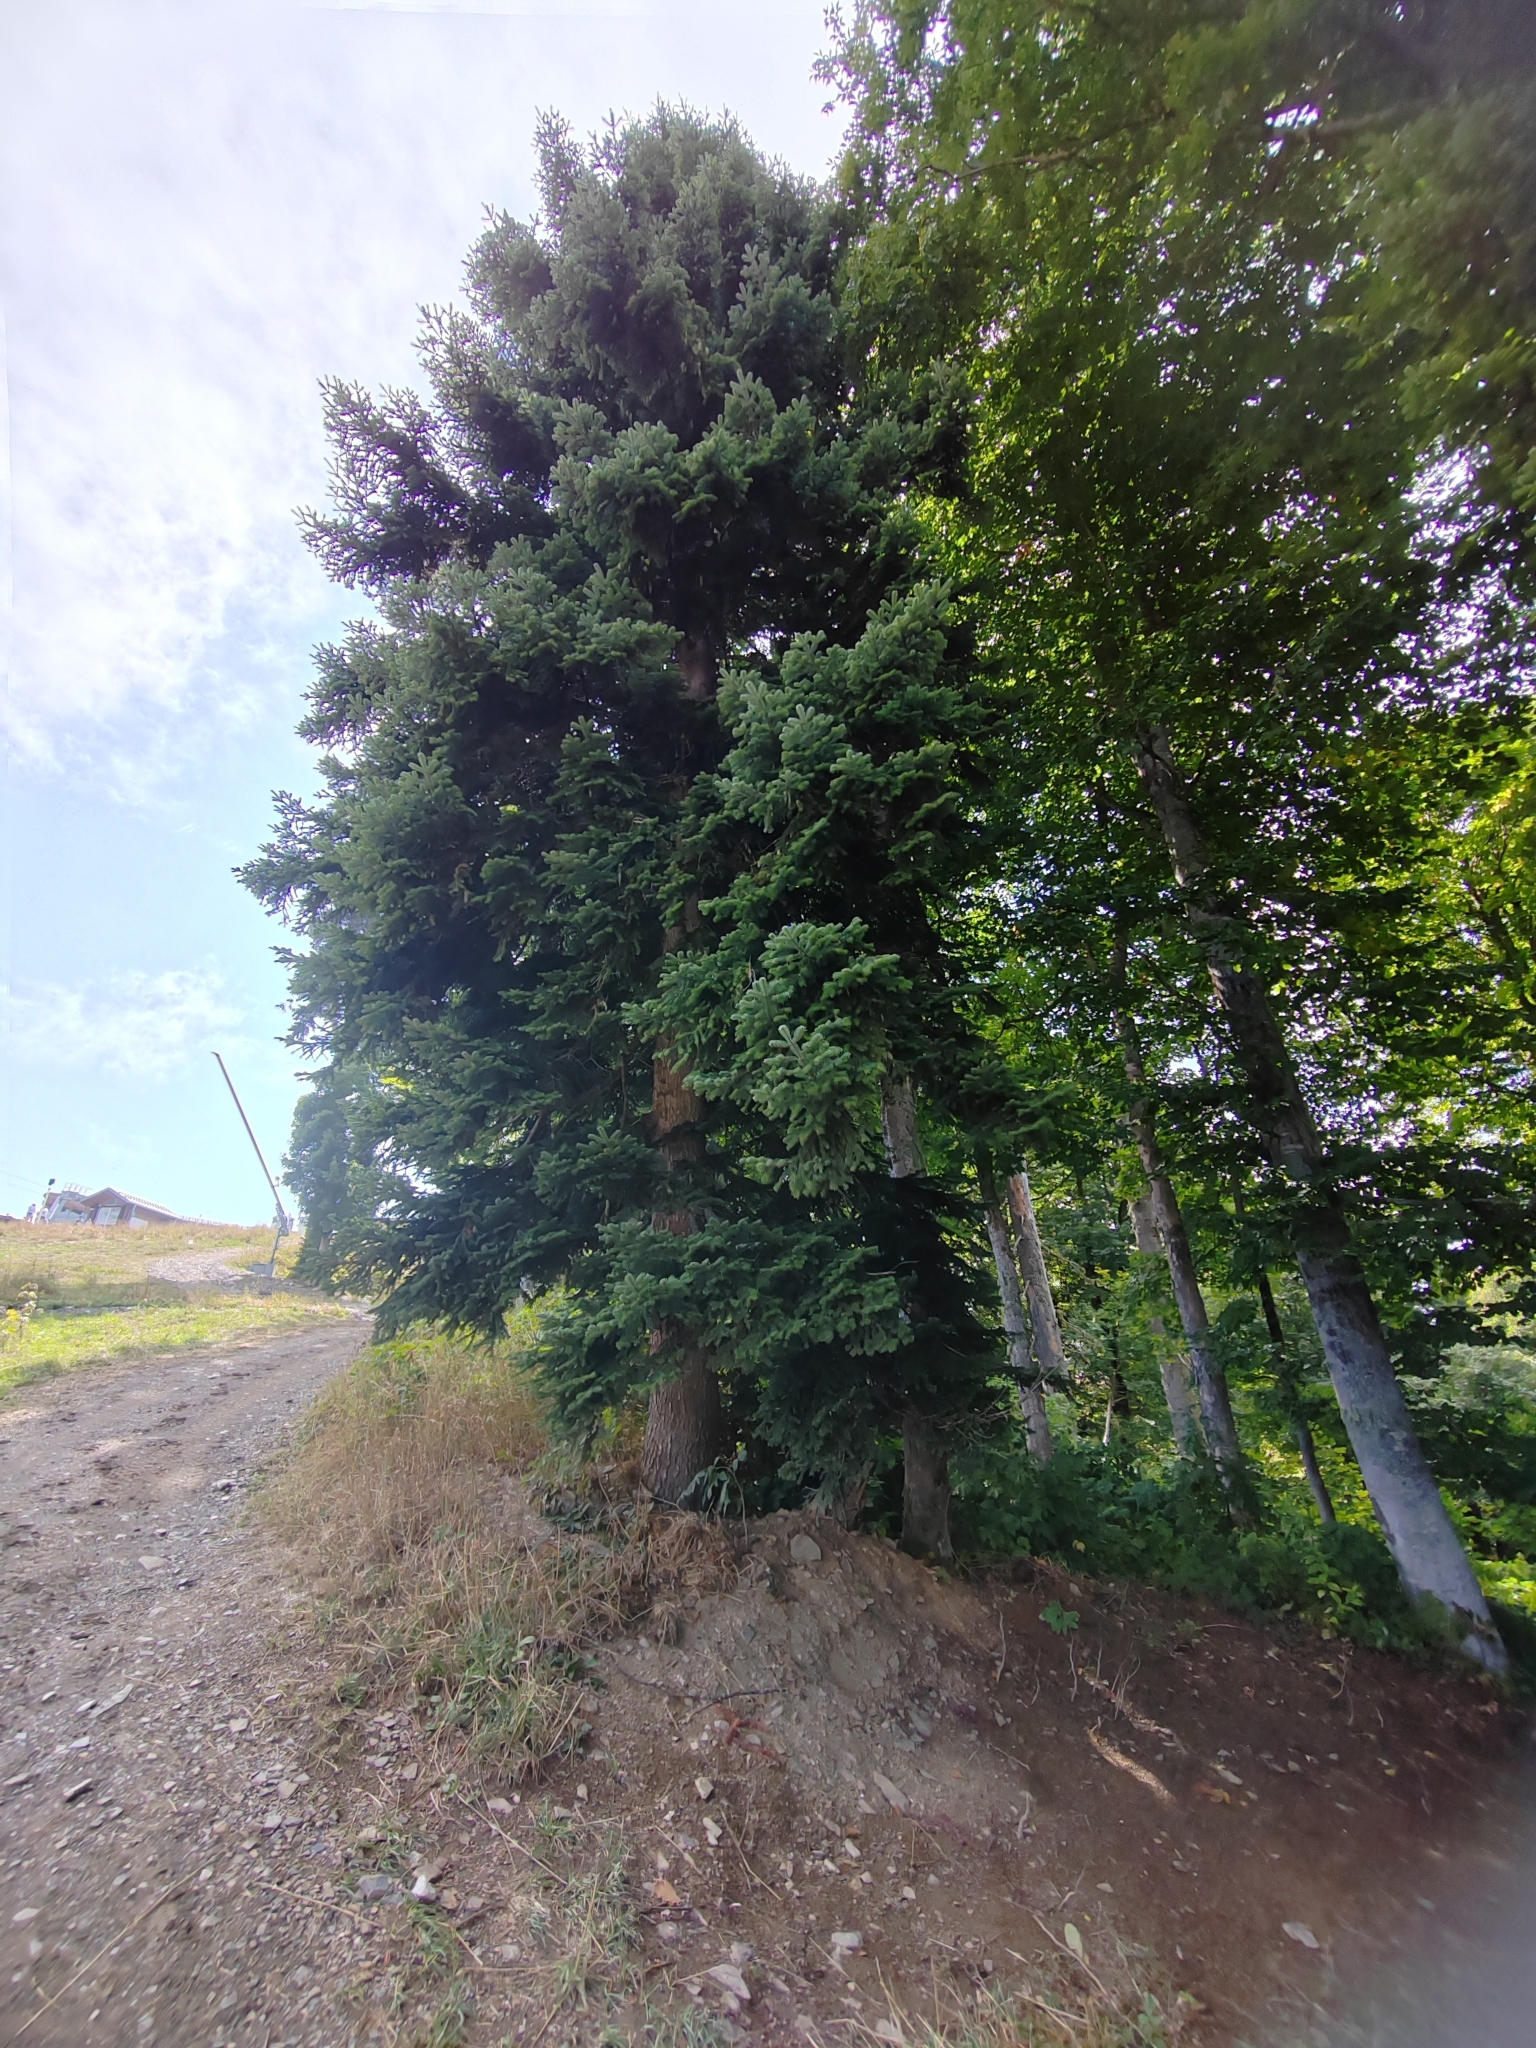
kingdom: Plantae
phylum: Tracheophyta
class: Pinopsida
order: Pinales
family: Pinaceae
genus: Abies
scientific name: Abies nordmanniana
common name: Caucasian fir
